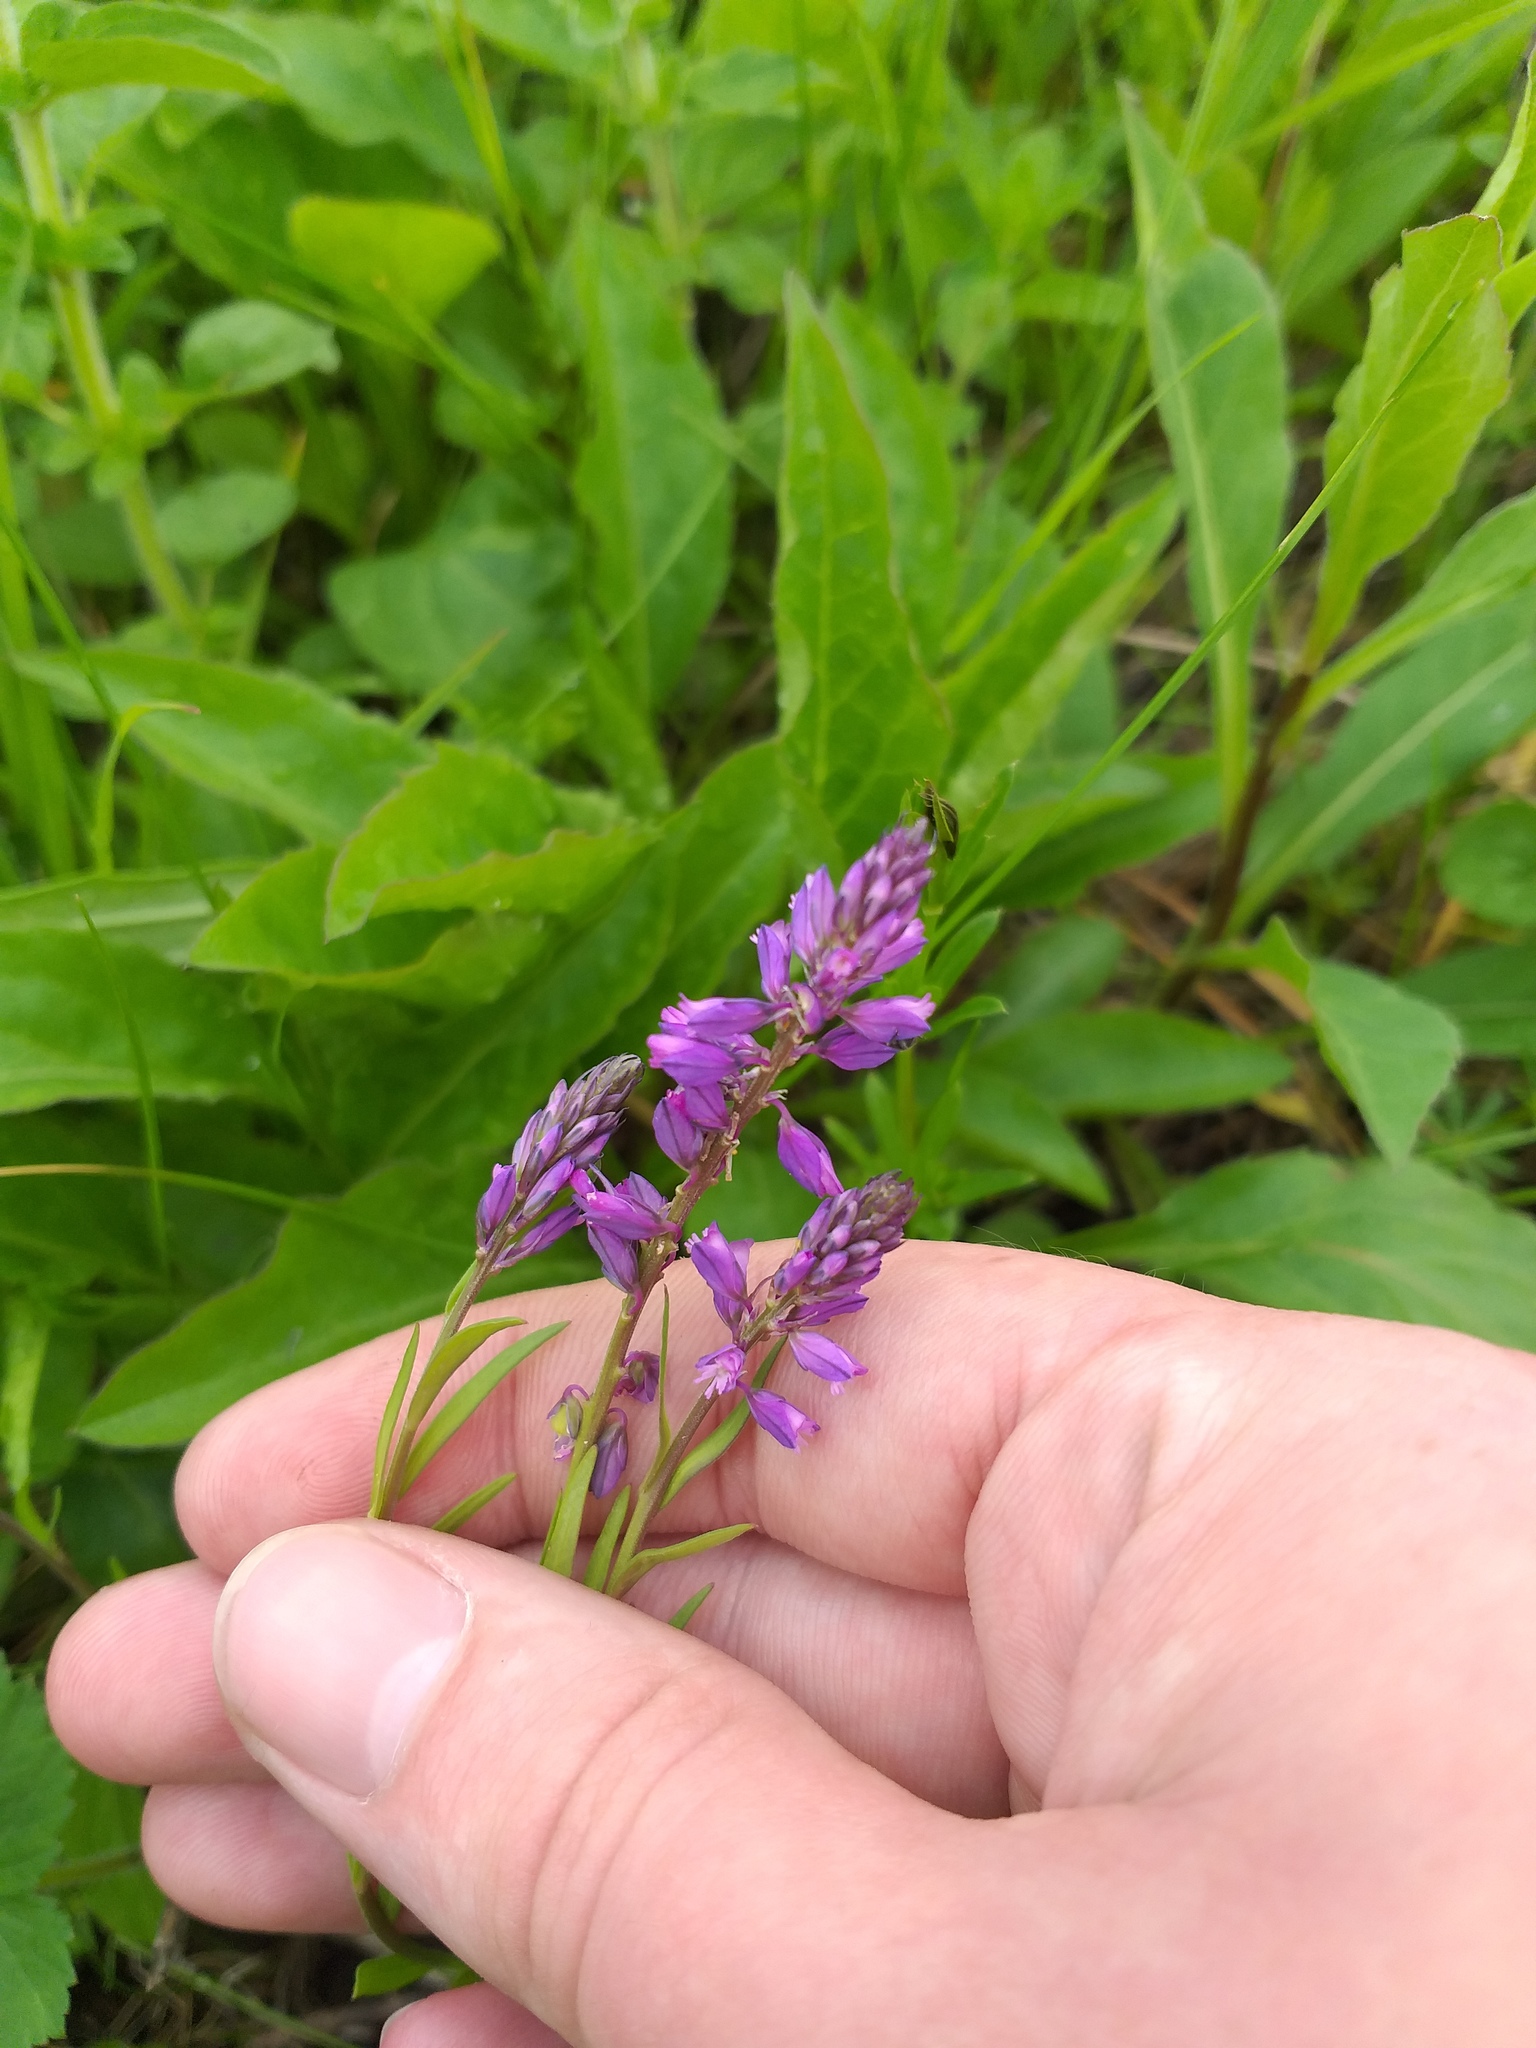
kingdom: Plantae
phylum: Tracheophyta
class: Magnoliopsida
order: Fabales
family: Polygalaceae
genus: Polygala
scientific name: Polygala comosa
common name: Tufted milkwort
